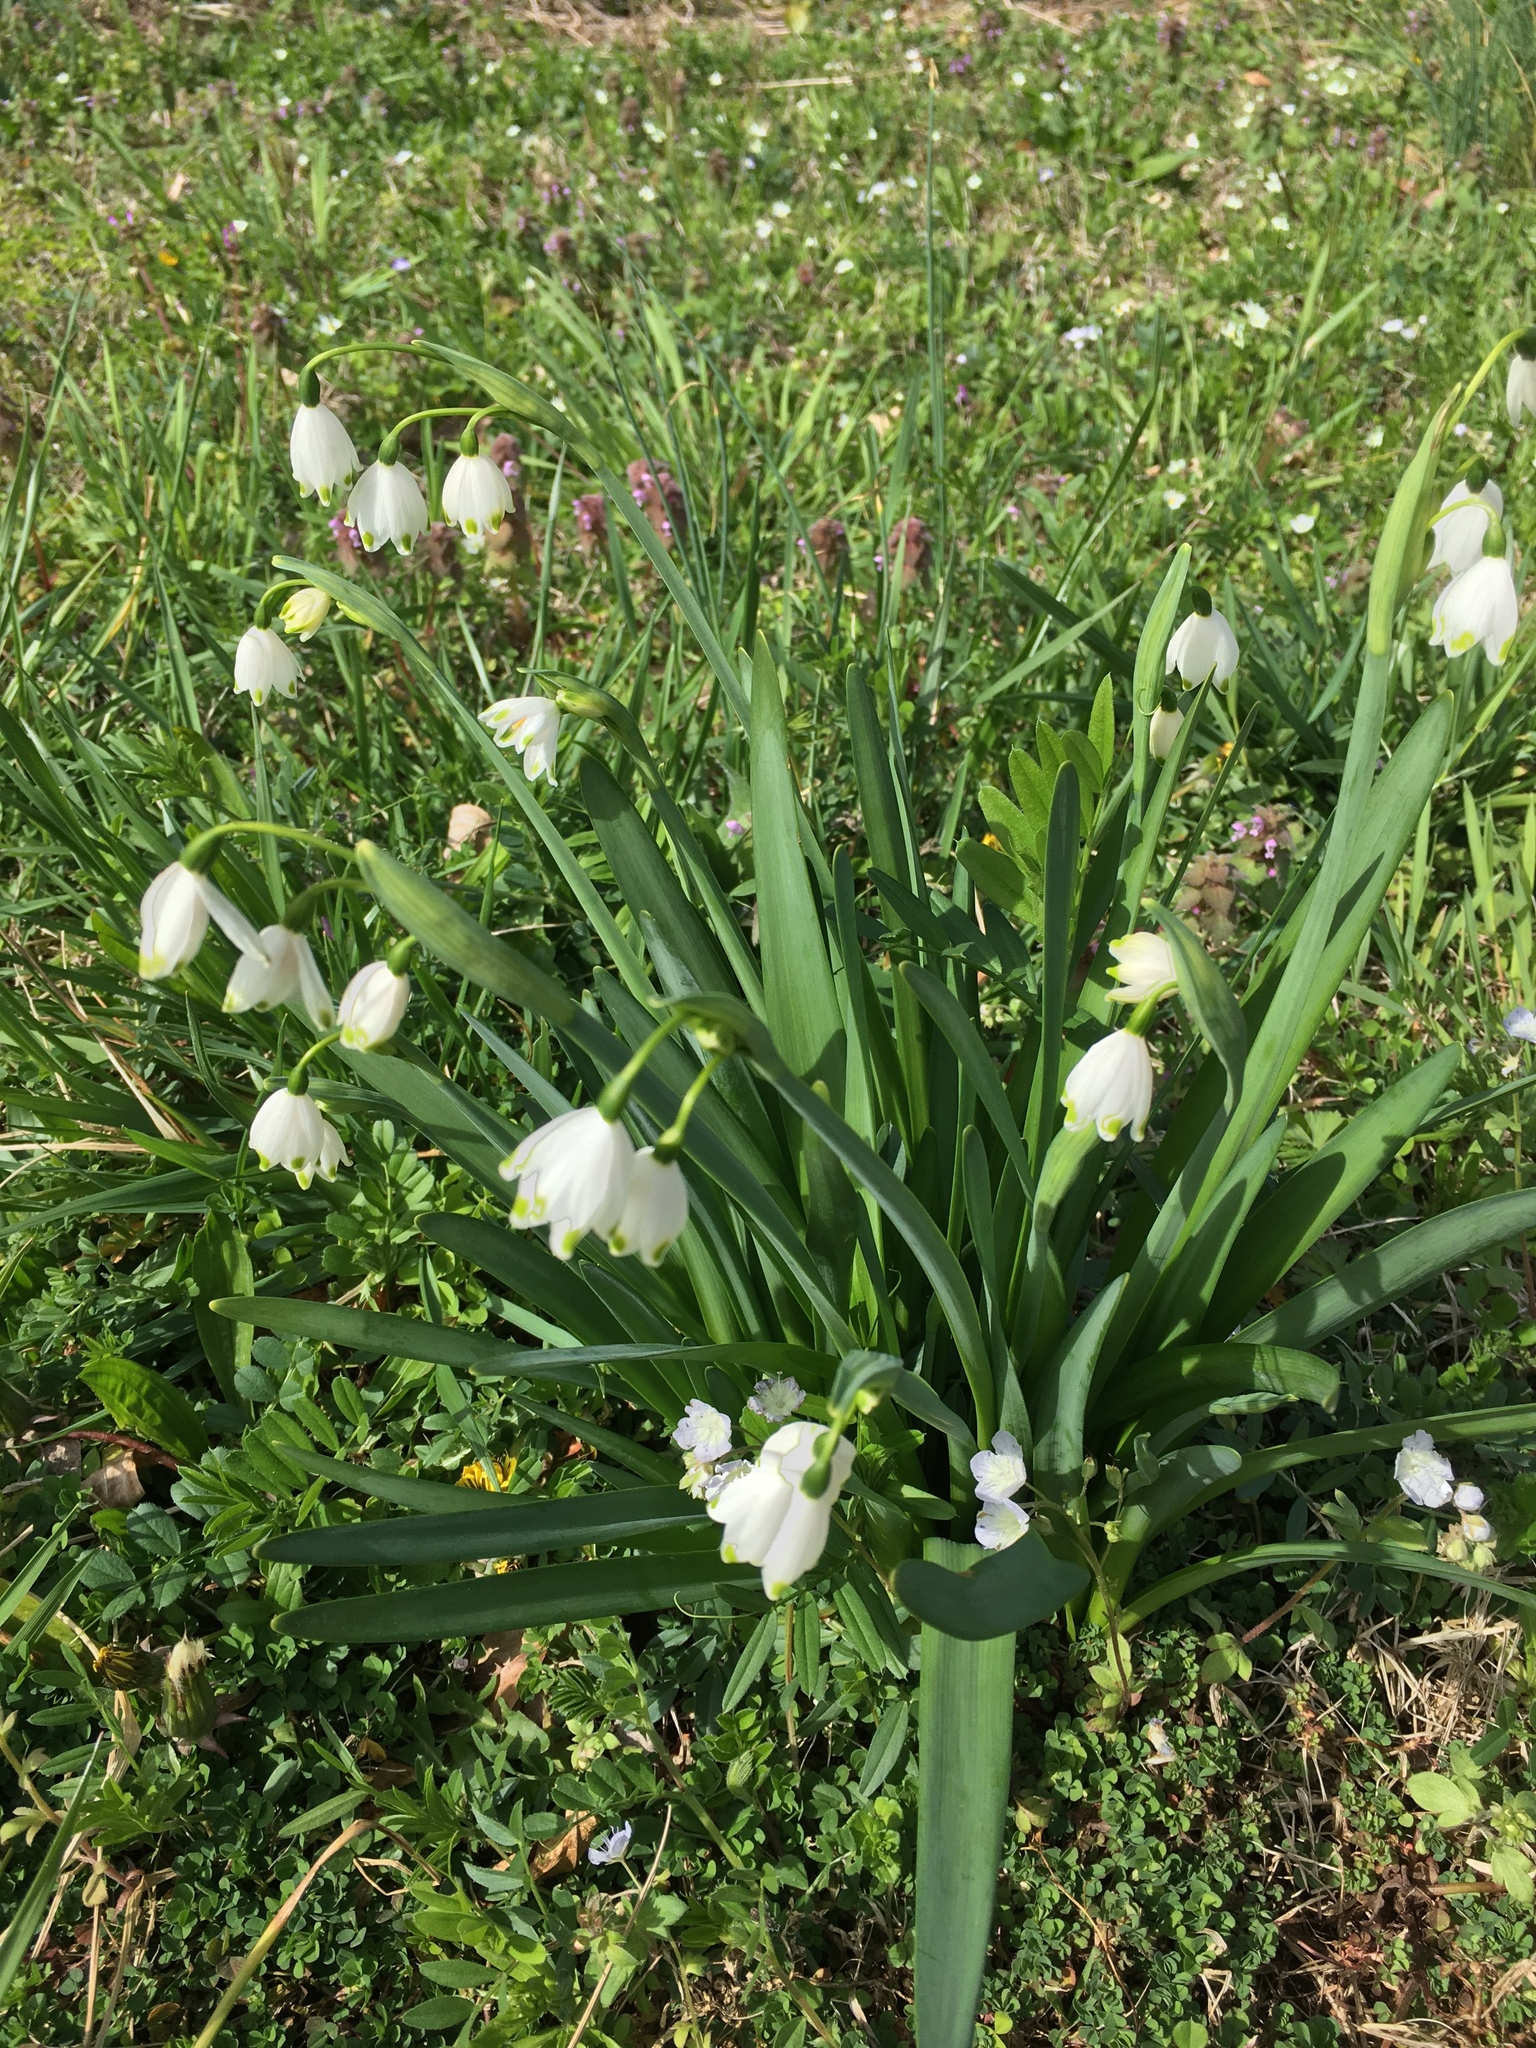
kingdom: Plantae
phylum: Tracheophyta
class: Liliopsida
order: Asparagales
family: Amaryllidaceae
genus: Leucojum
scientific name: Leucojum aestivum
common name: Summer snowflake
